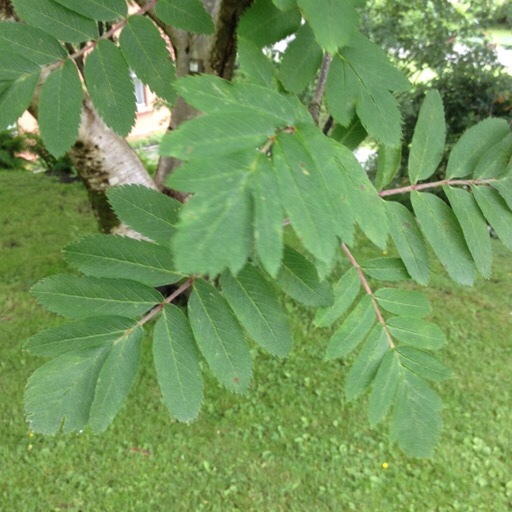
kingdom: Plantae
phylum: Tracheophyta
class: Magnoliopsida
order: Rosales
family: Rosaceae
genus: Sorbus
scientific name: Sorbus aucuparia
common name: Rowan
